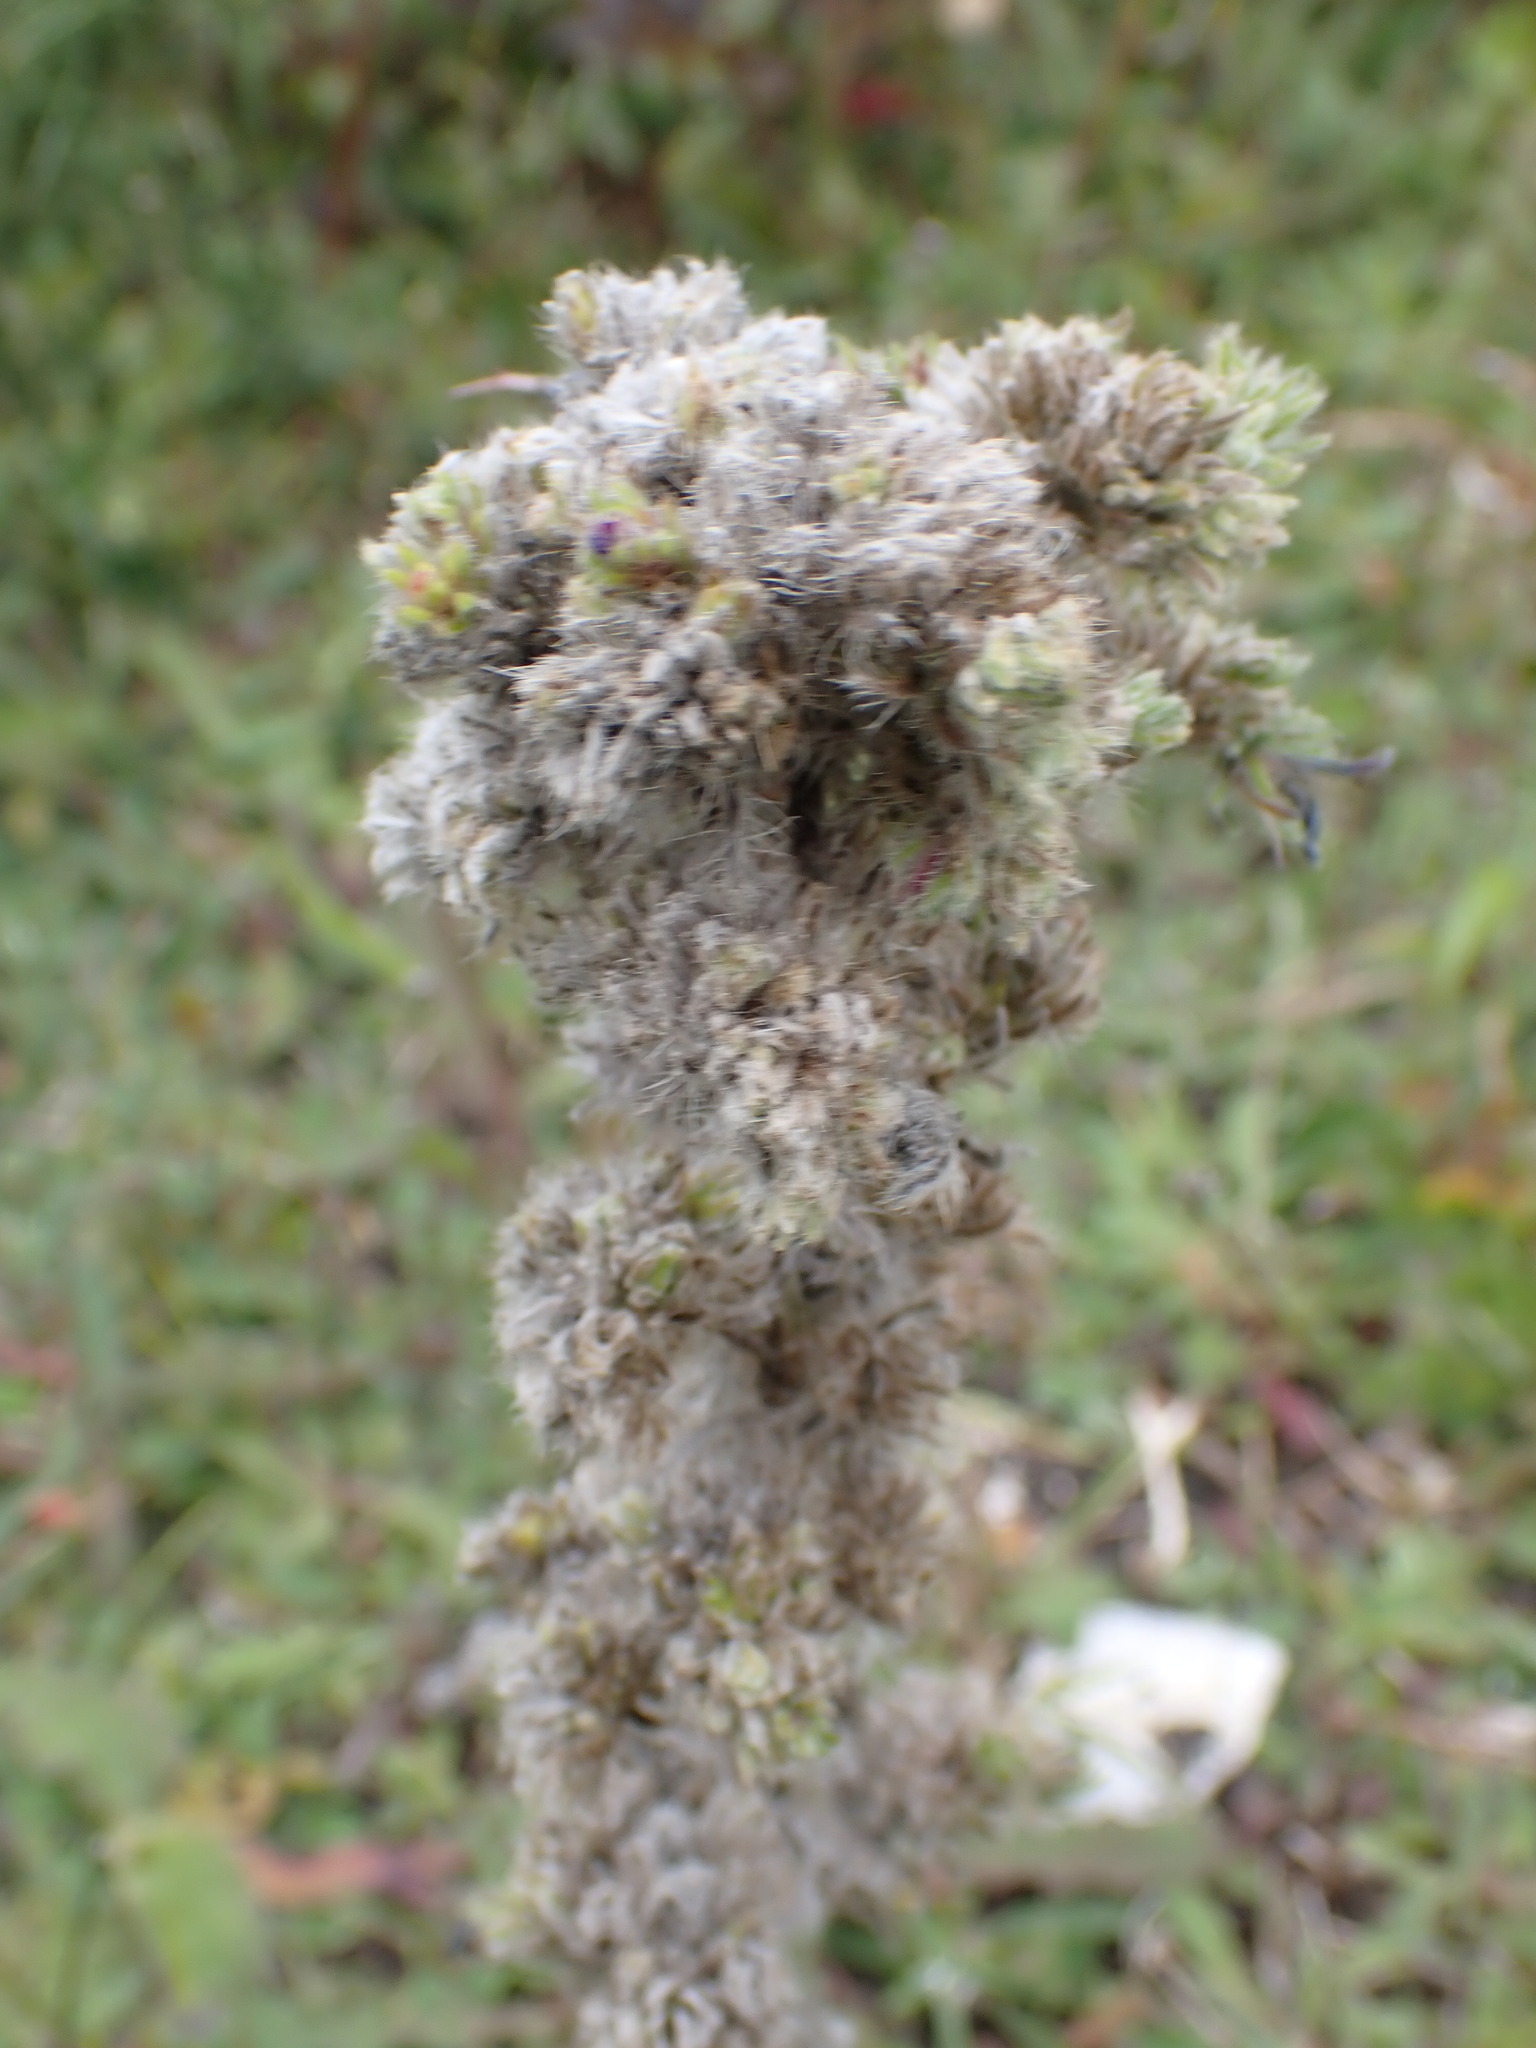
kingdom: Plantae
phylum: Tracheophyta
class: Magnoliopsida
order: Boraginales
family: Boraginaceae
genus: Echium
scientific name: Echium vulgare
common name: Common viper's bugloss
